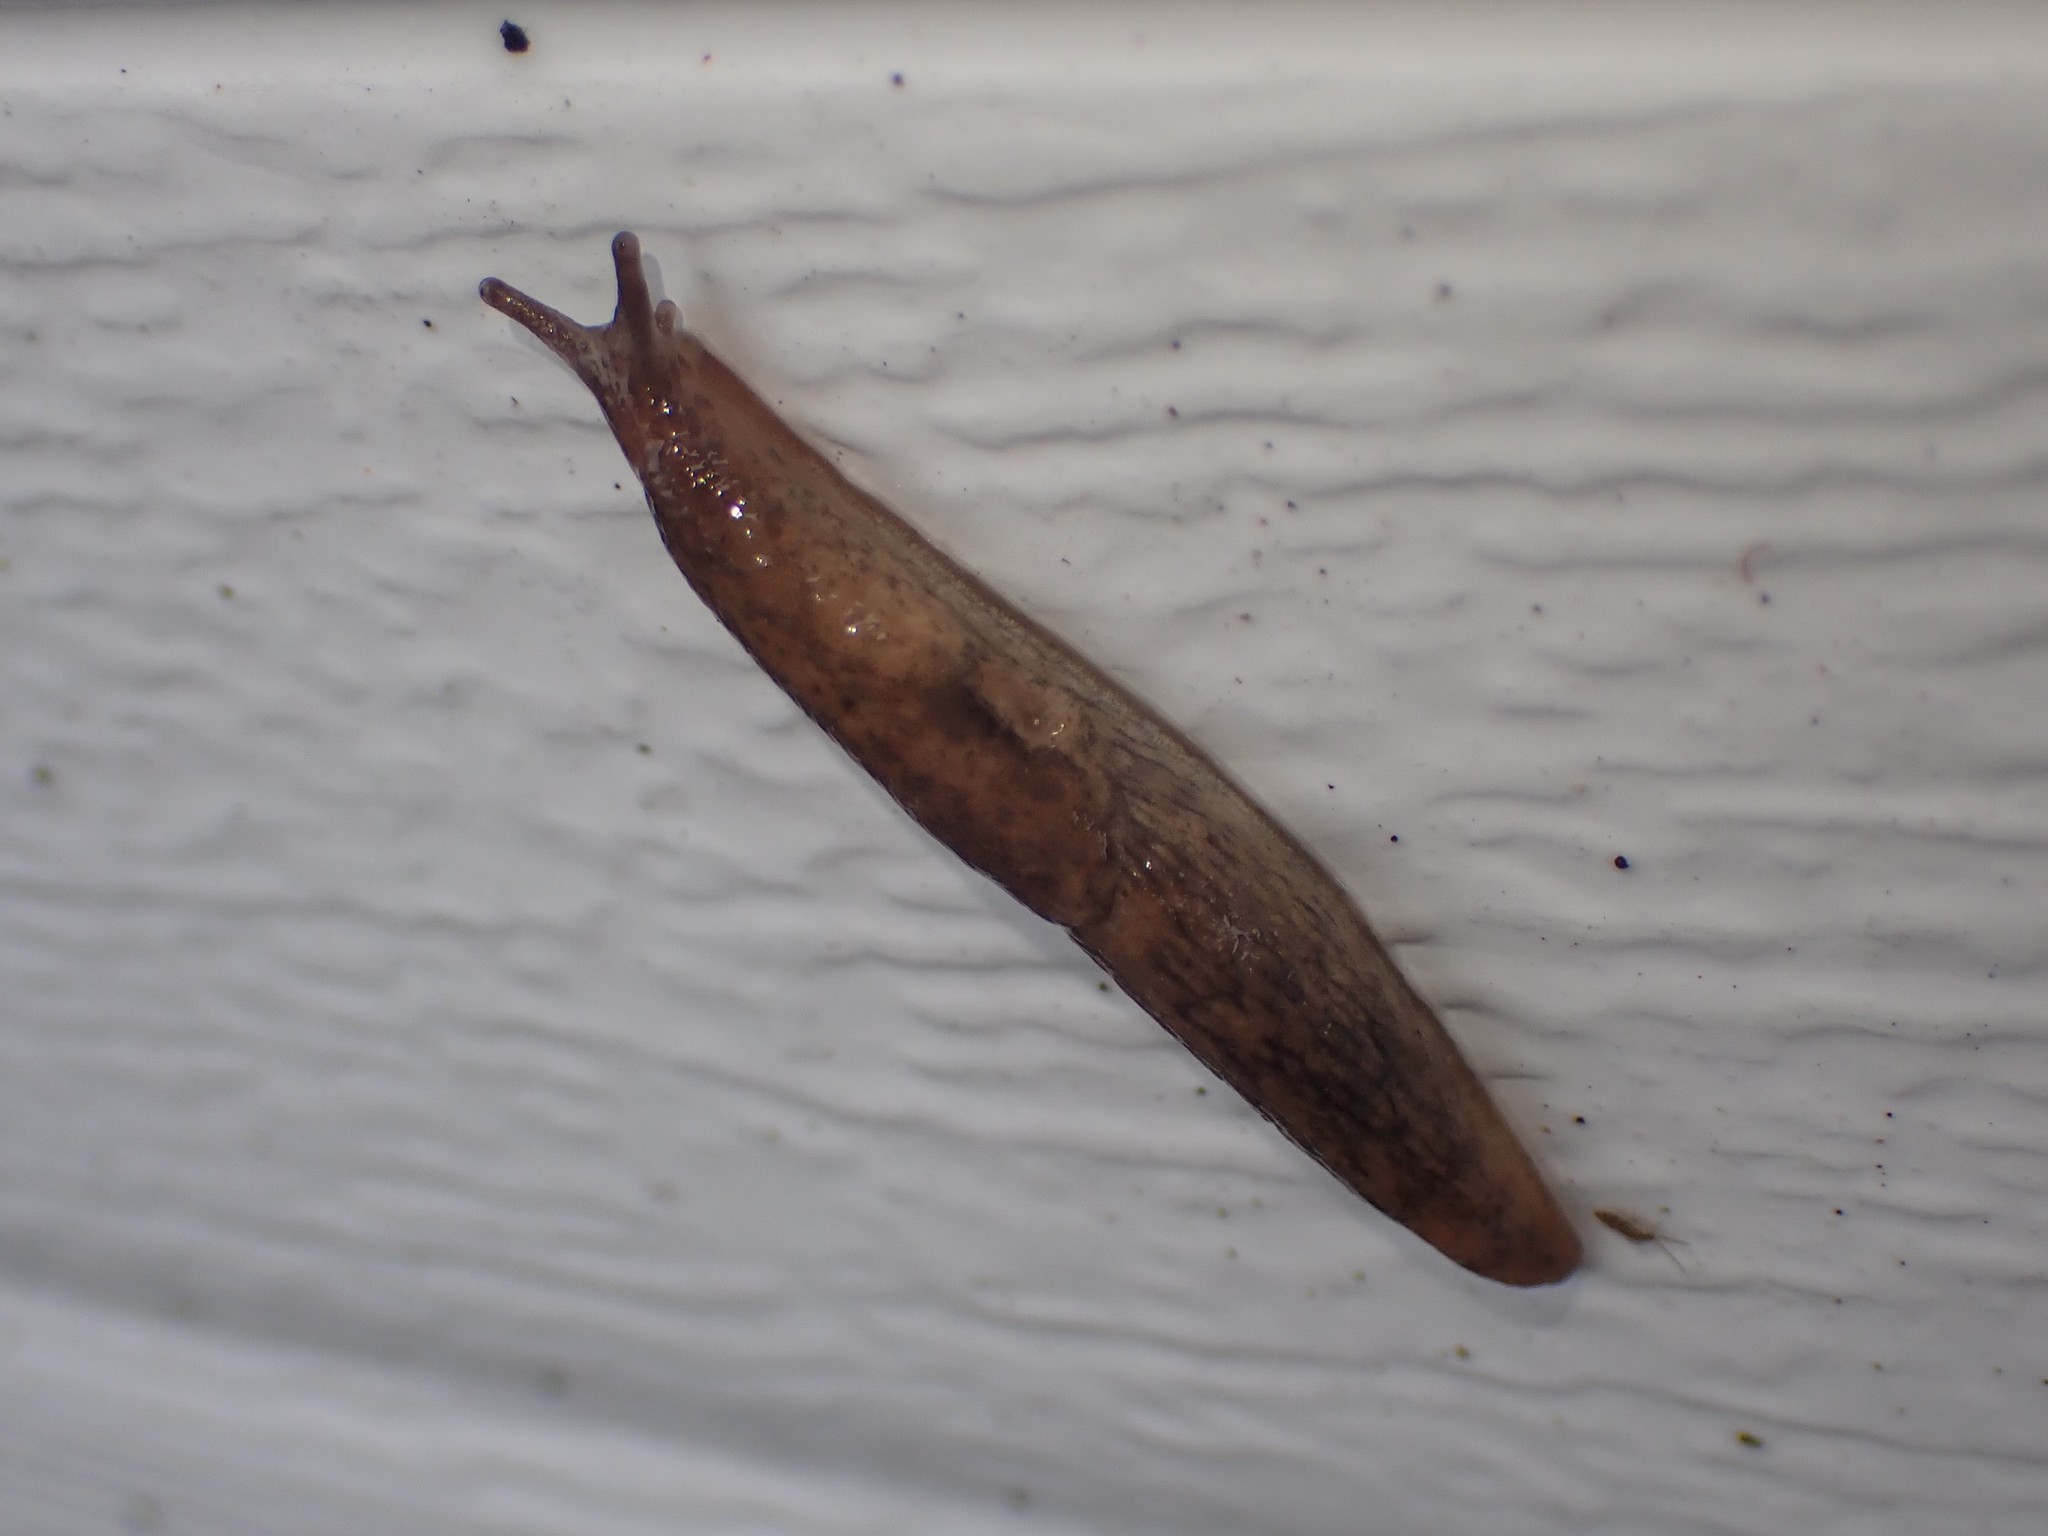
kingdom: Animalia
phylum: Mollusca
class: Gastropoda
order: Stylommatophora
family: Agriolimacidae
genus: Deroceras
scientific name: Deroceras reticulatum
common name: Gray field slug
